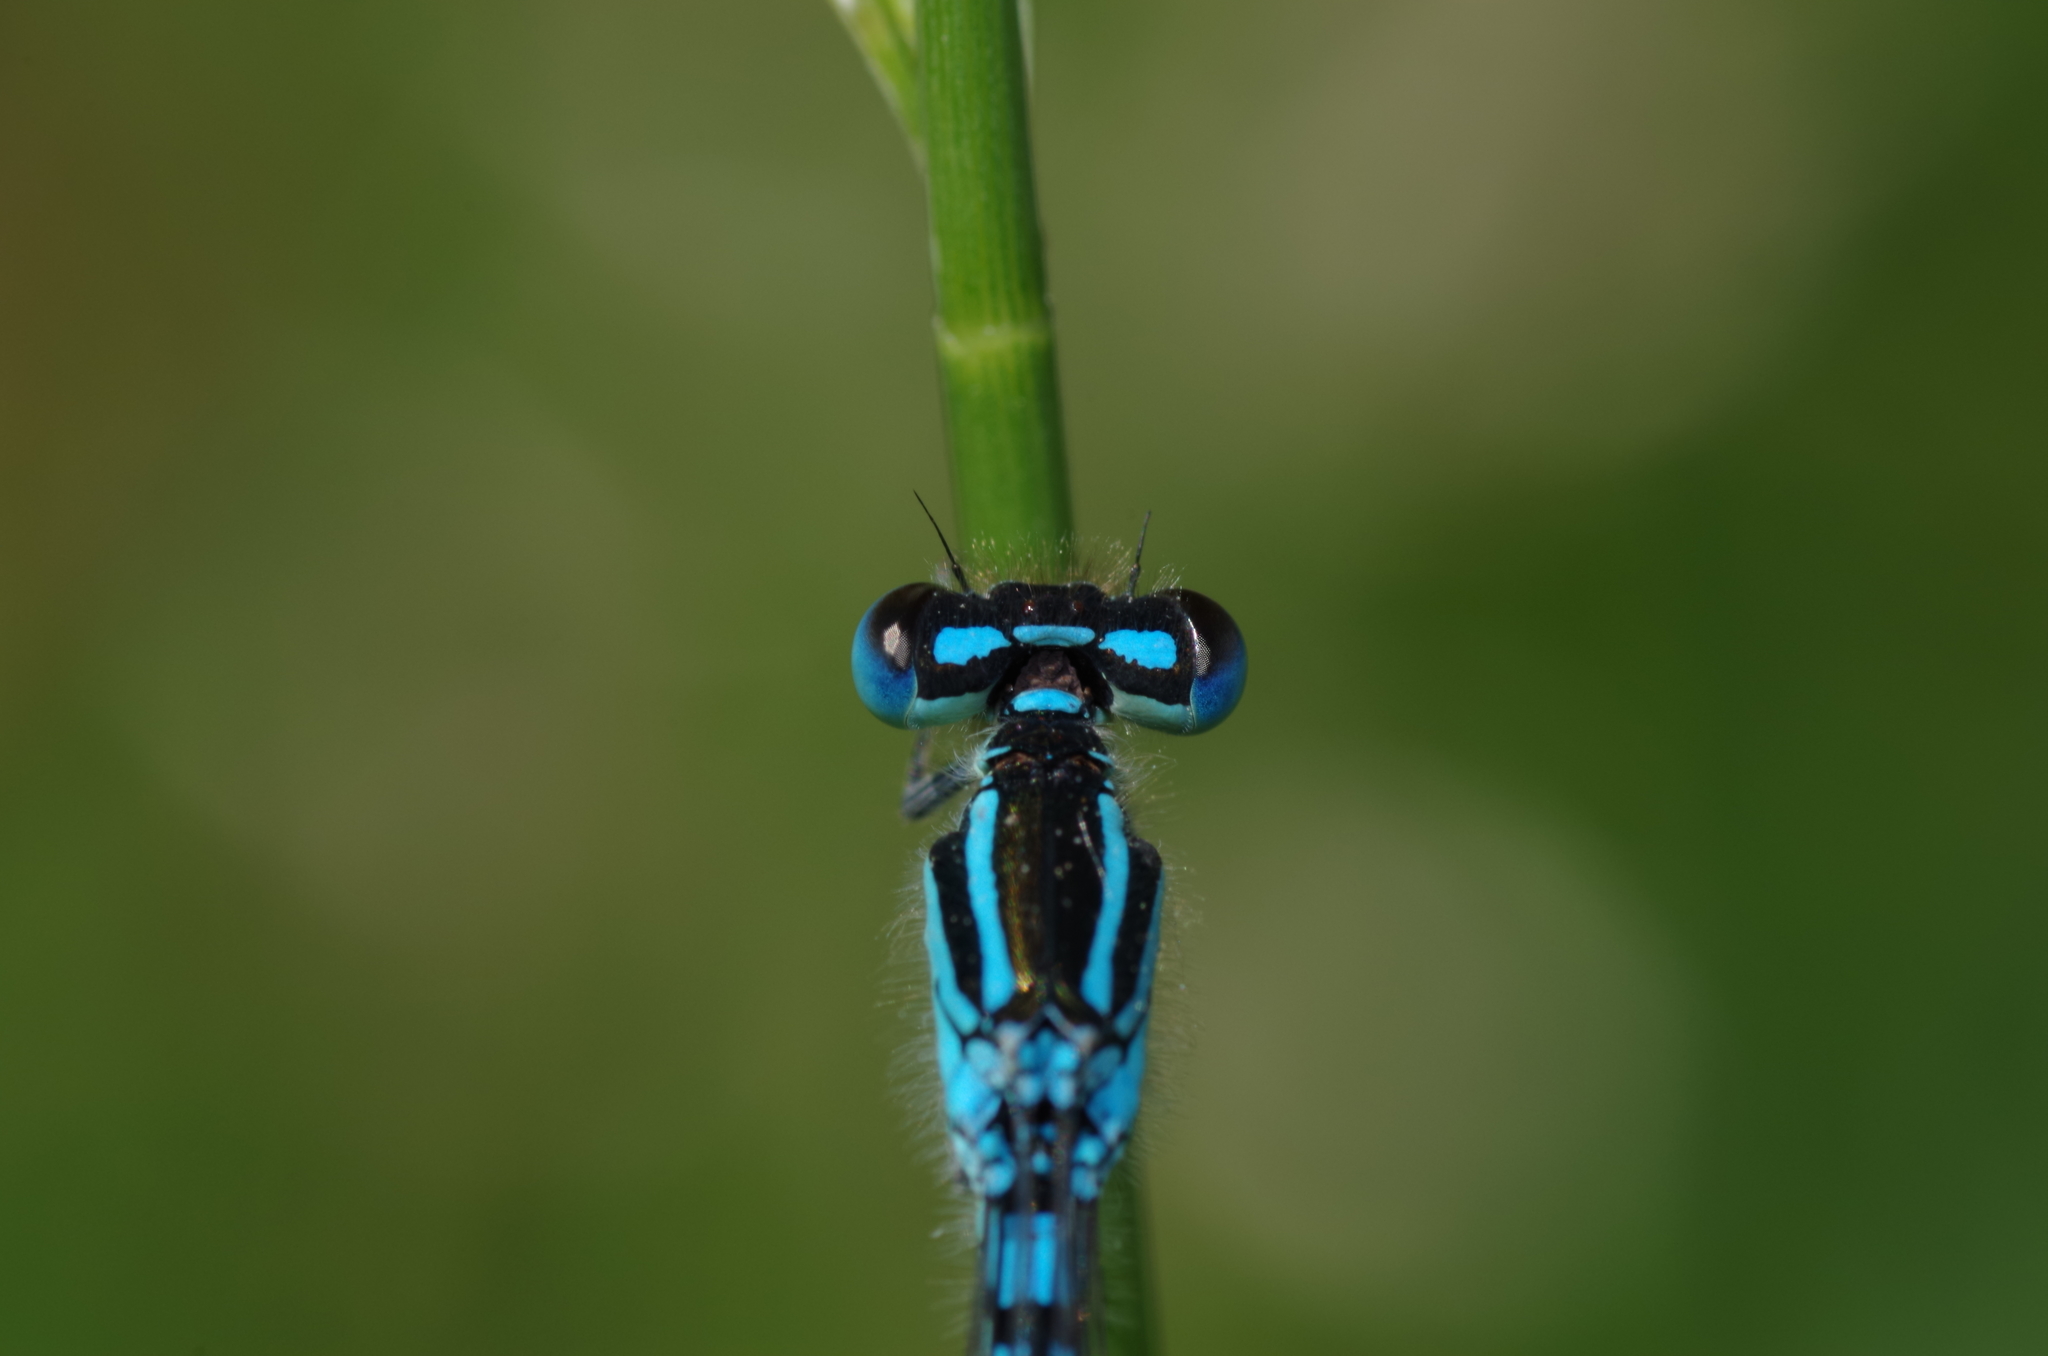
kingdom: Animalia
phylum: Arthropoda
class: Insecta
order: Odonata
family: Coenagrionidae
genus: Coenagrion
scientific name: Coenagrion scitulum
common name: Dainty bluet
